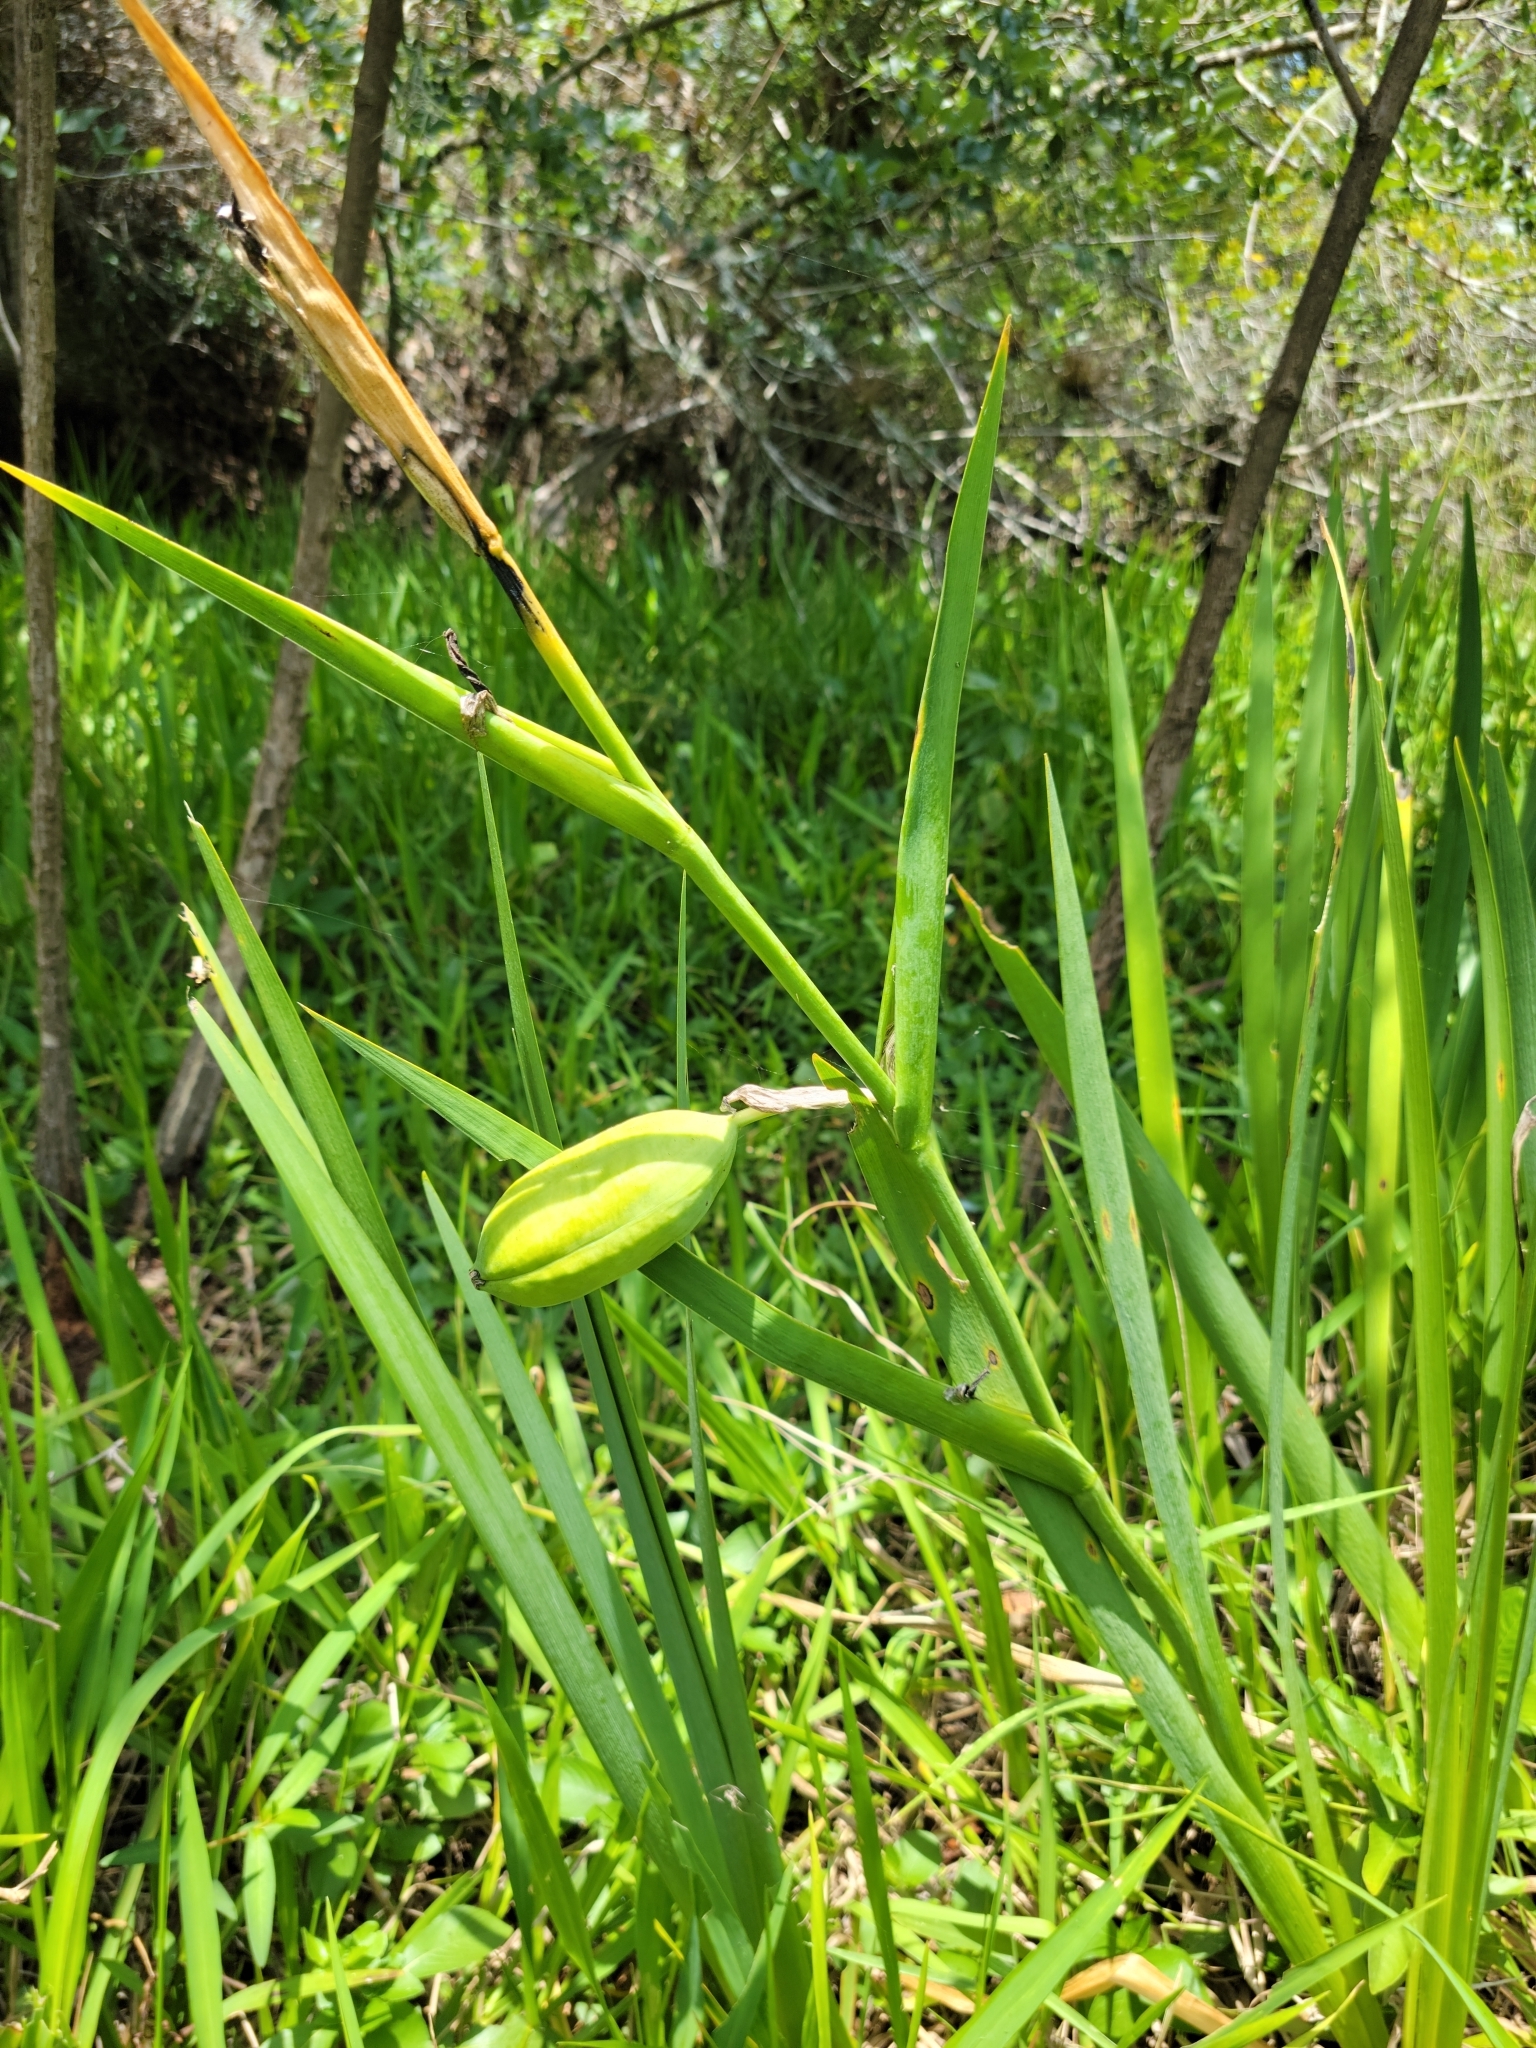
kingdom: Plantae
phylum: Tracheophyta
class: Liliopsida
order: Asparagales
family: Iridaceae
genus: Iris
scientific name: Iris savannarum
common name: Prairie iris
